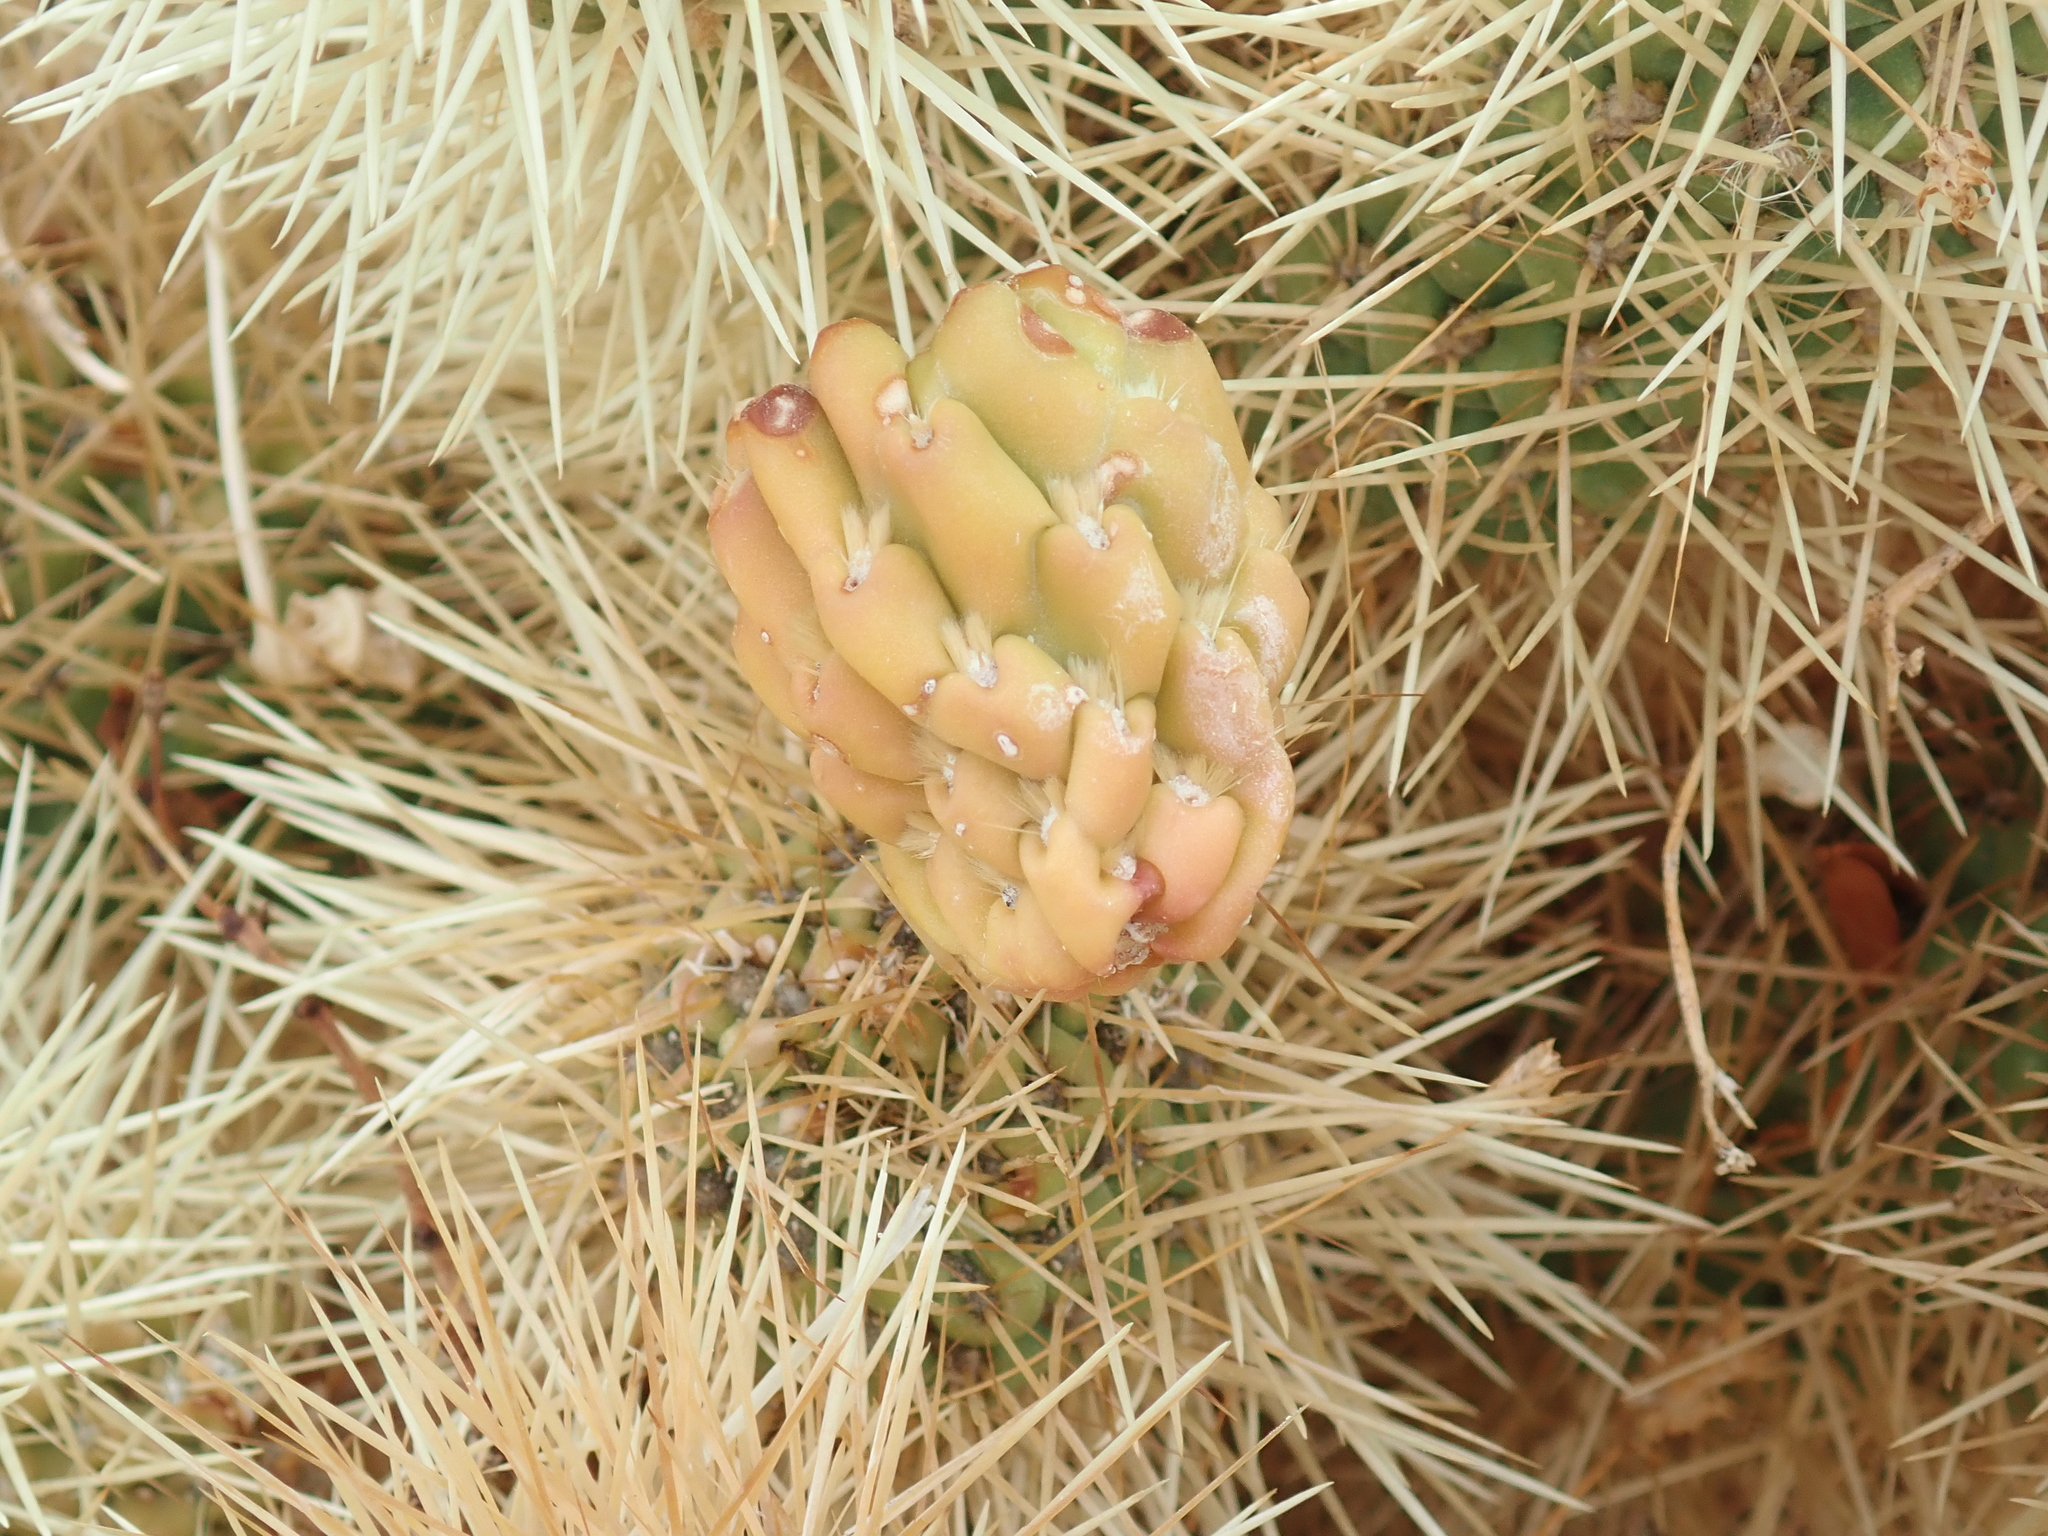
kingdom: Plantae
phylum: Tracheophyta
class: Magnoliopsida
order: Caryophyllales
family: Cactaceae
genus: Cylindropuntia
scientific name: Cylindropuntia fosbergii
